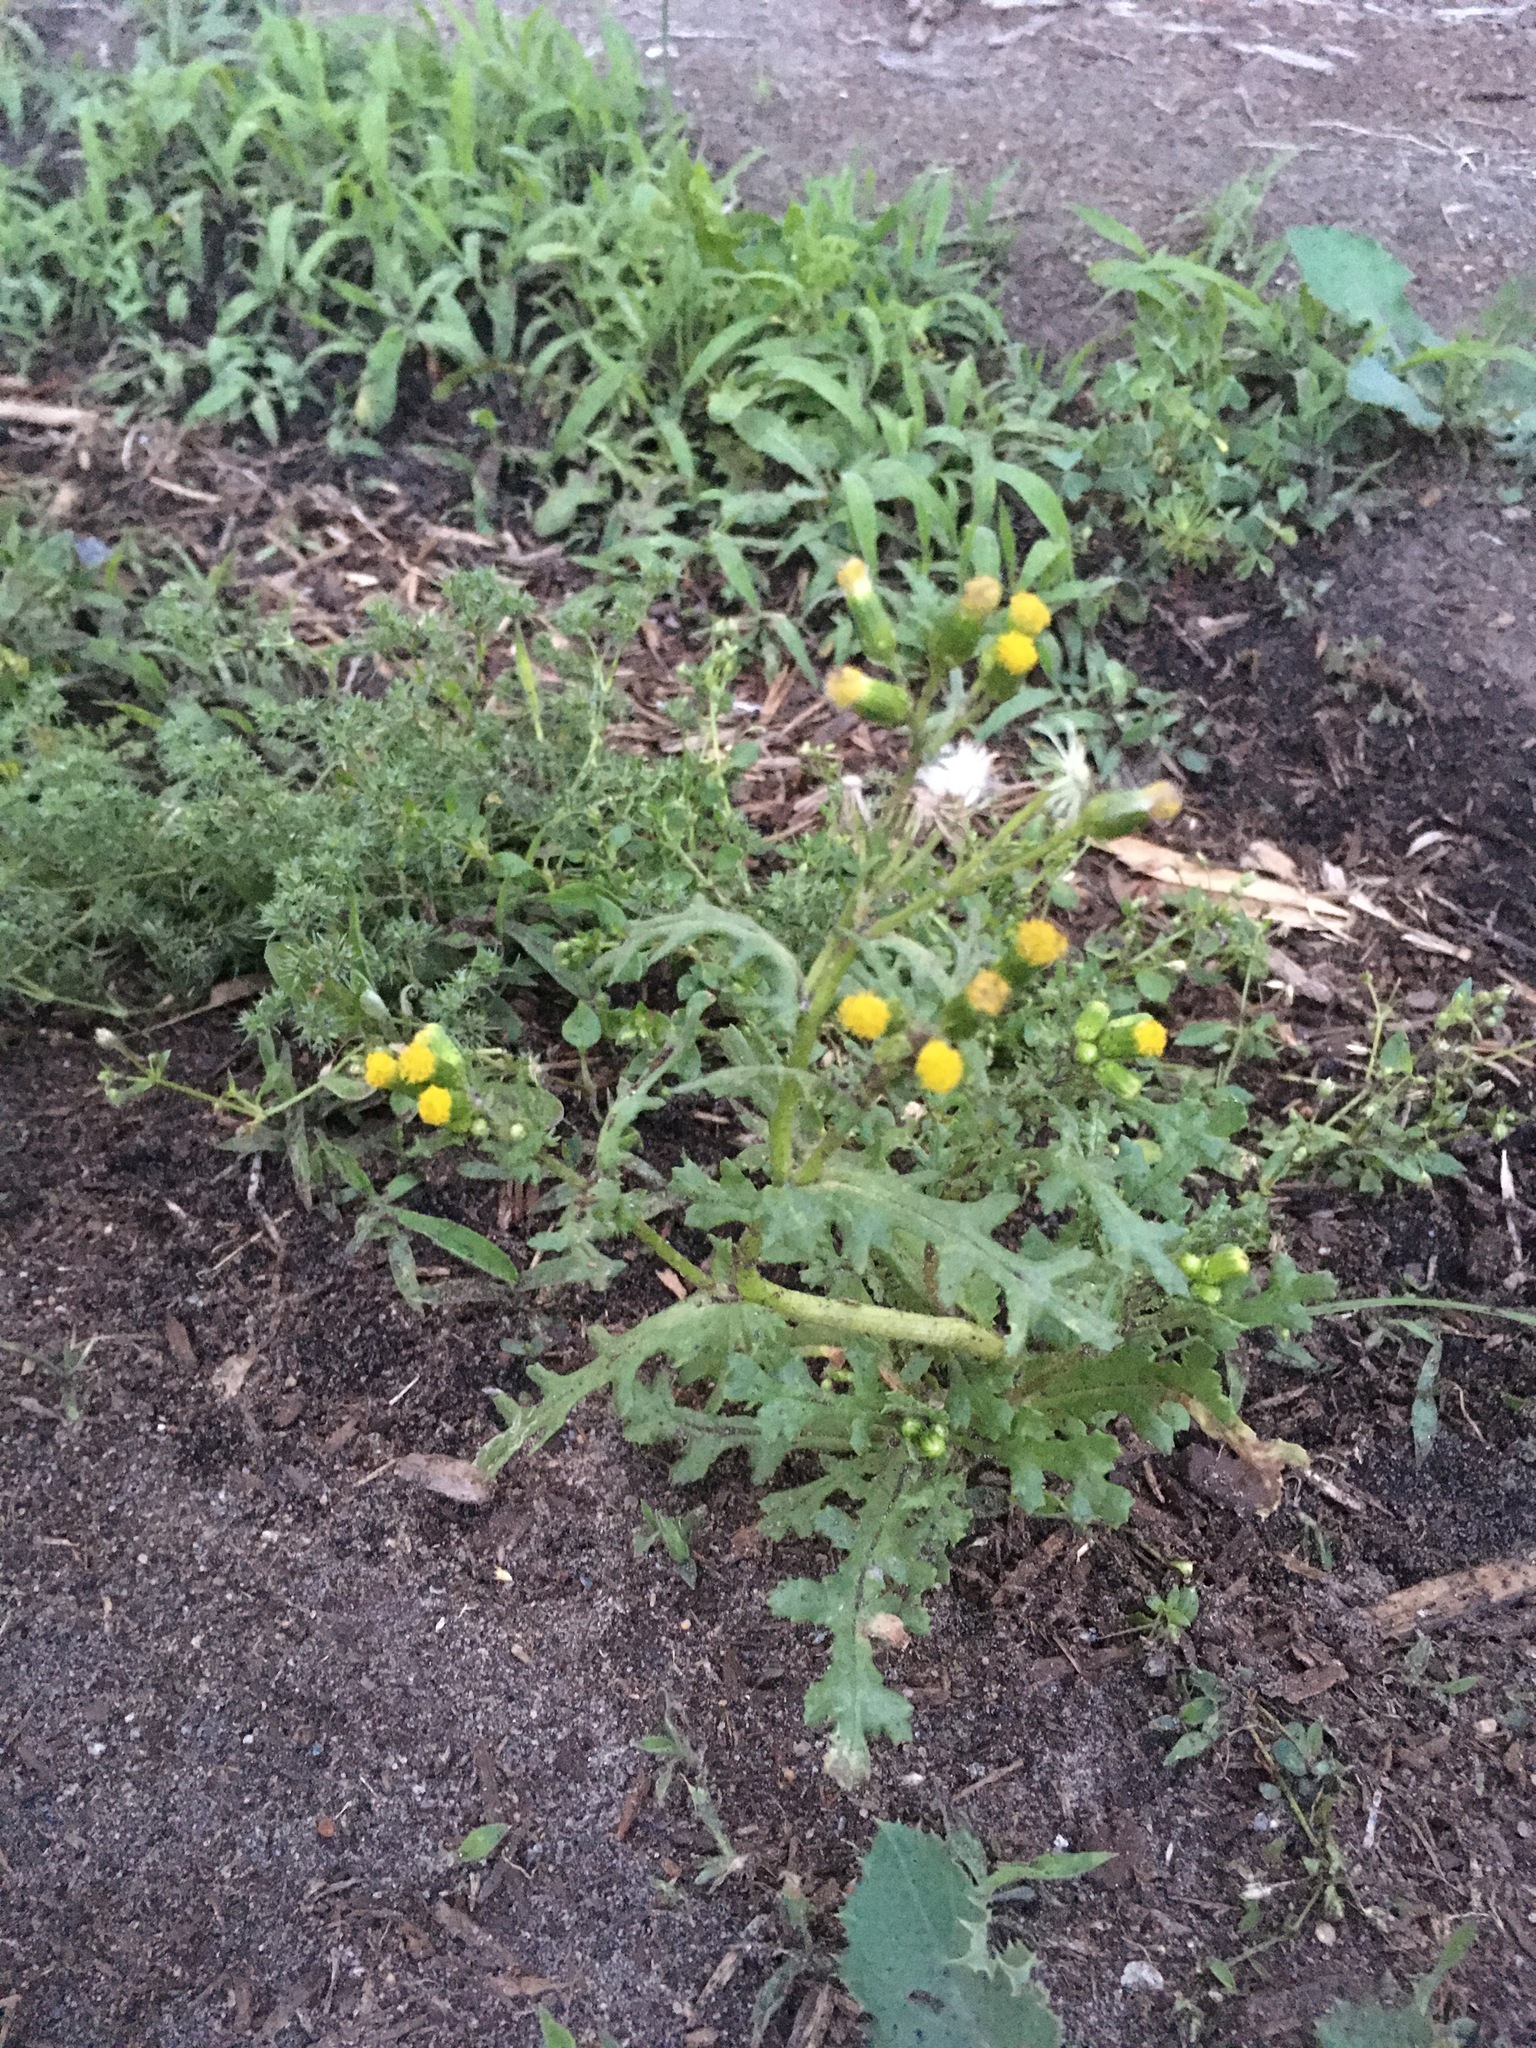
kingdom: Plantae
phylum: Tracheophyta
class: Magnoliopsida
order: Asterales
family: Asteraceae
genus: Senecio
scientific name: Senecio vulgaris
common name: Old-man-in-the-spring
